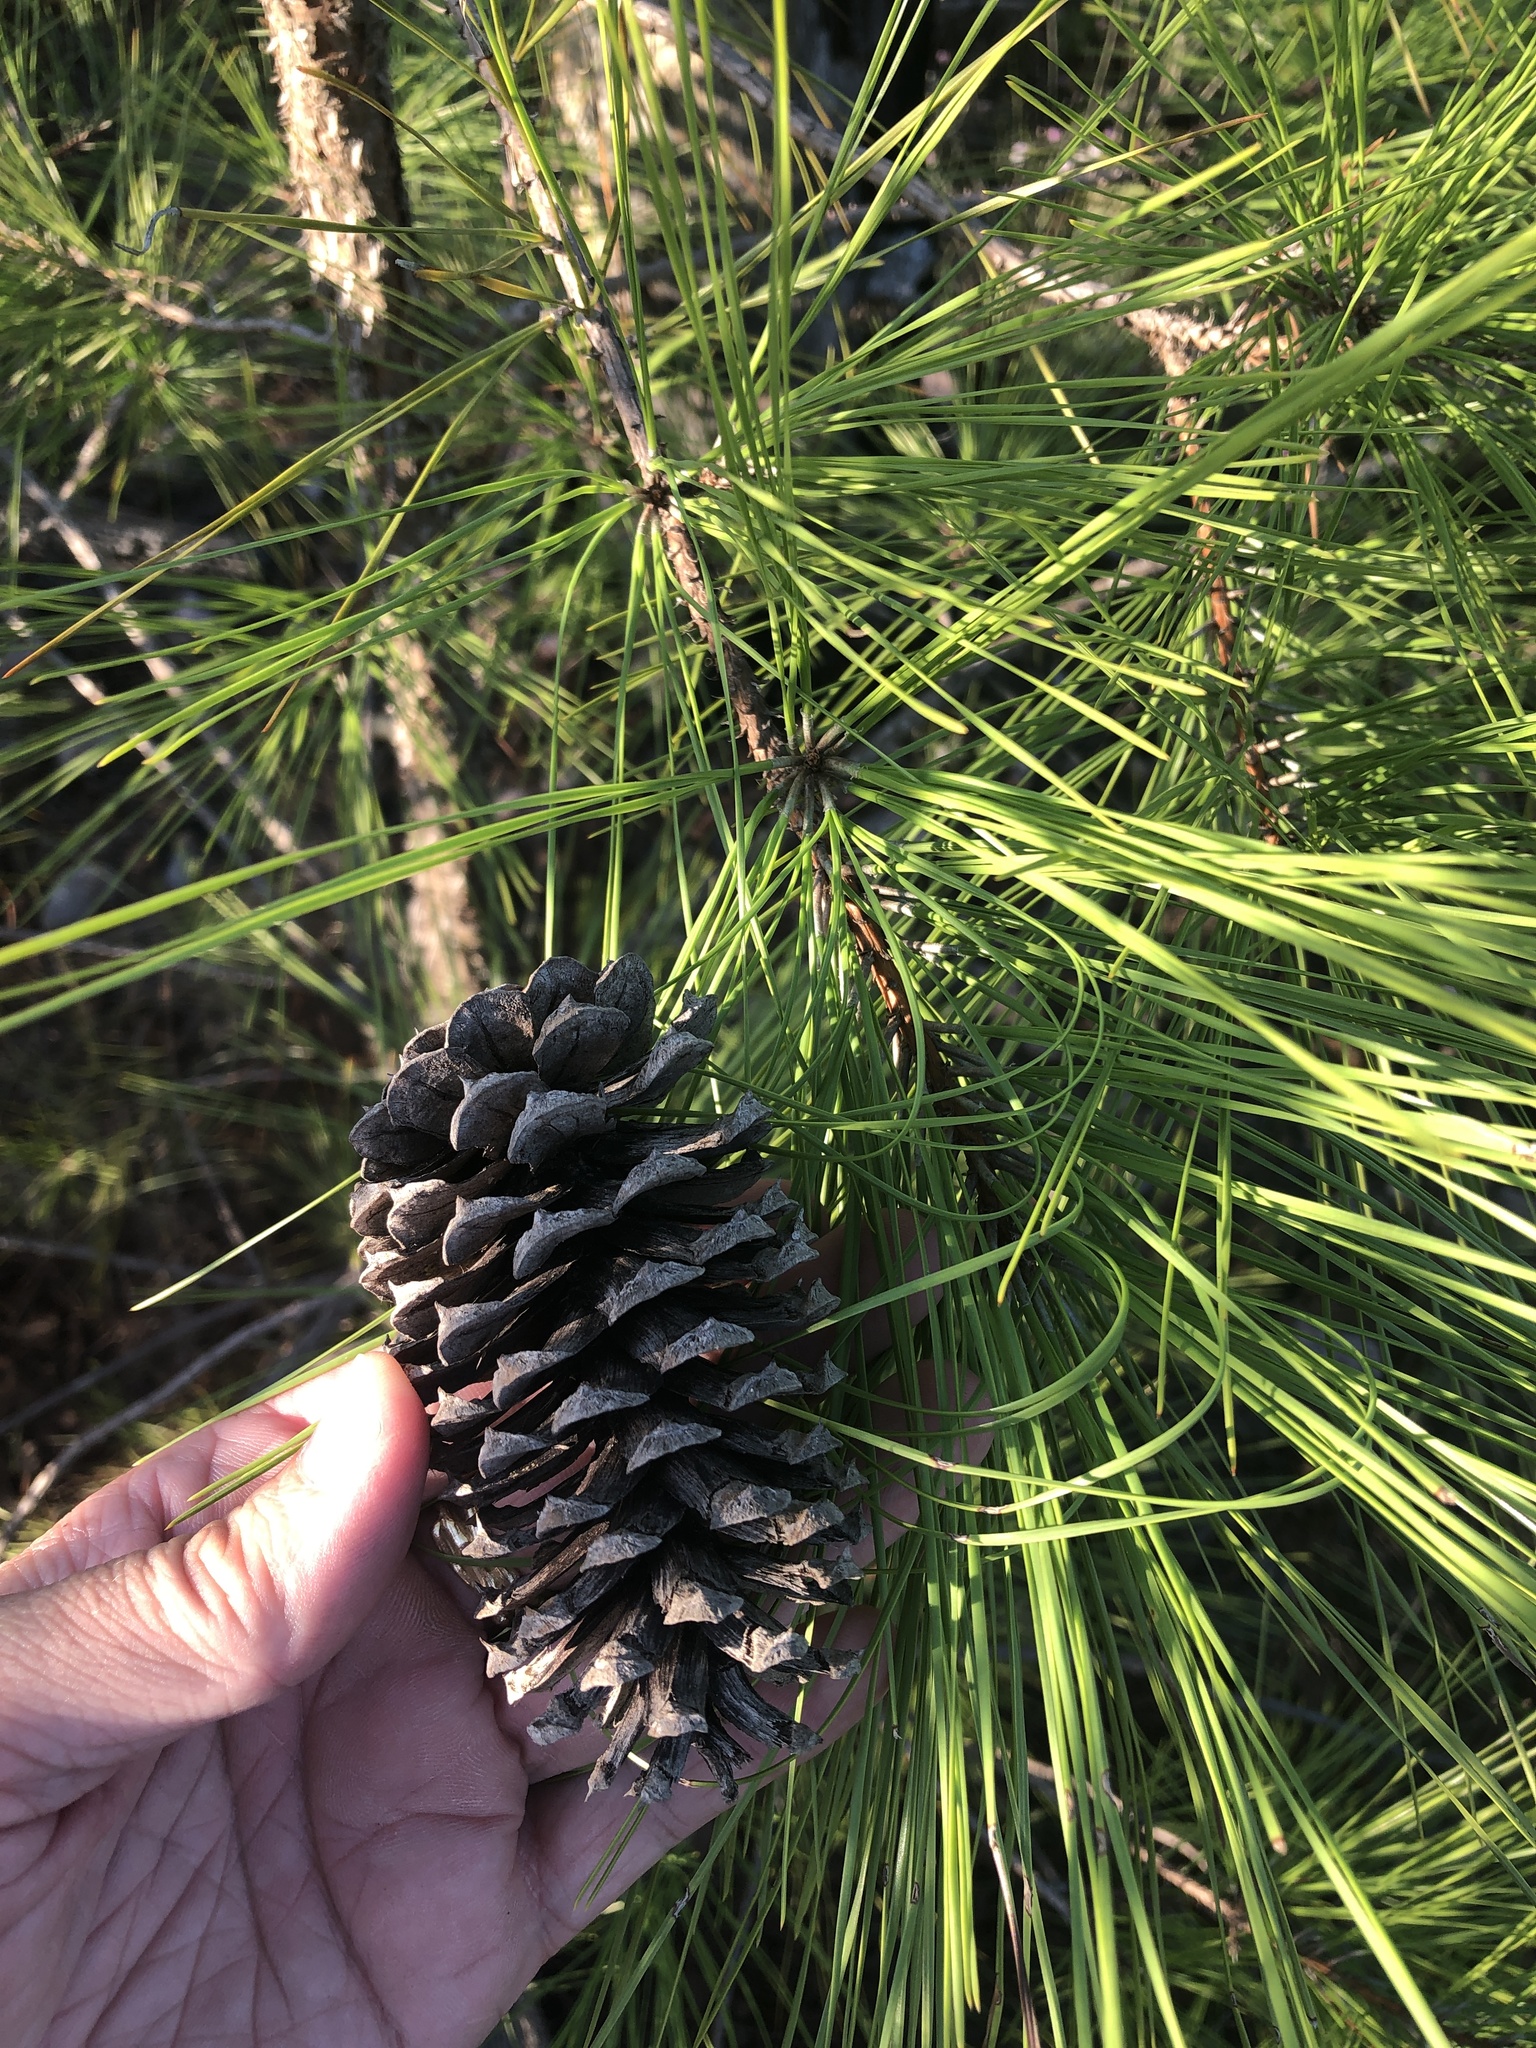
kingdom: Plantae
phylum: Tracheophyta
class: Pinopsida
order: Pinales
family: Pinaceae
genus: Pinus
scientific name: Pinus taeda
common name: Loblolly pine
